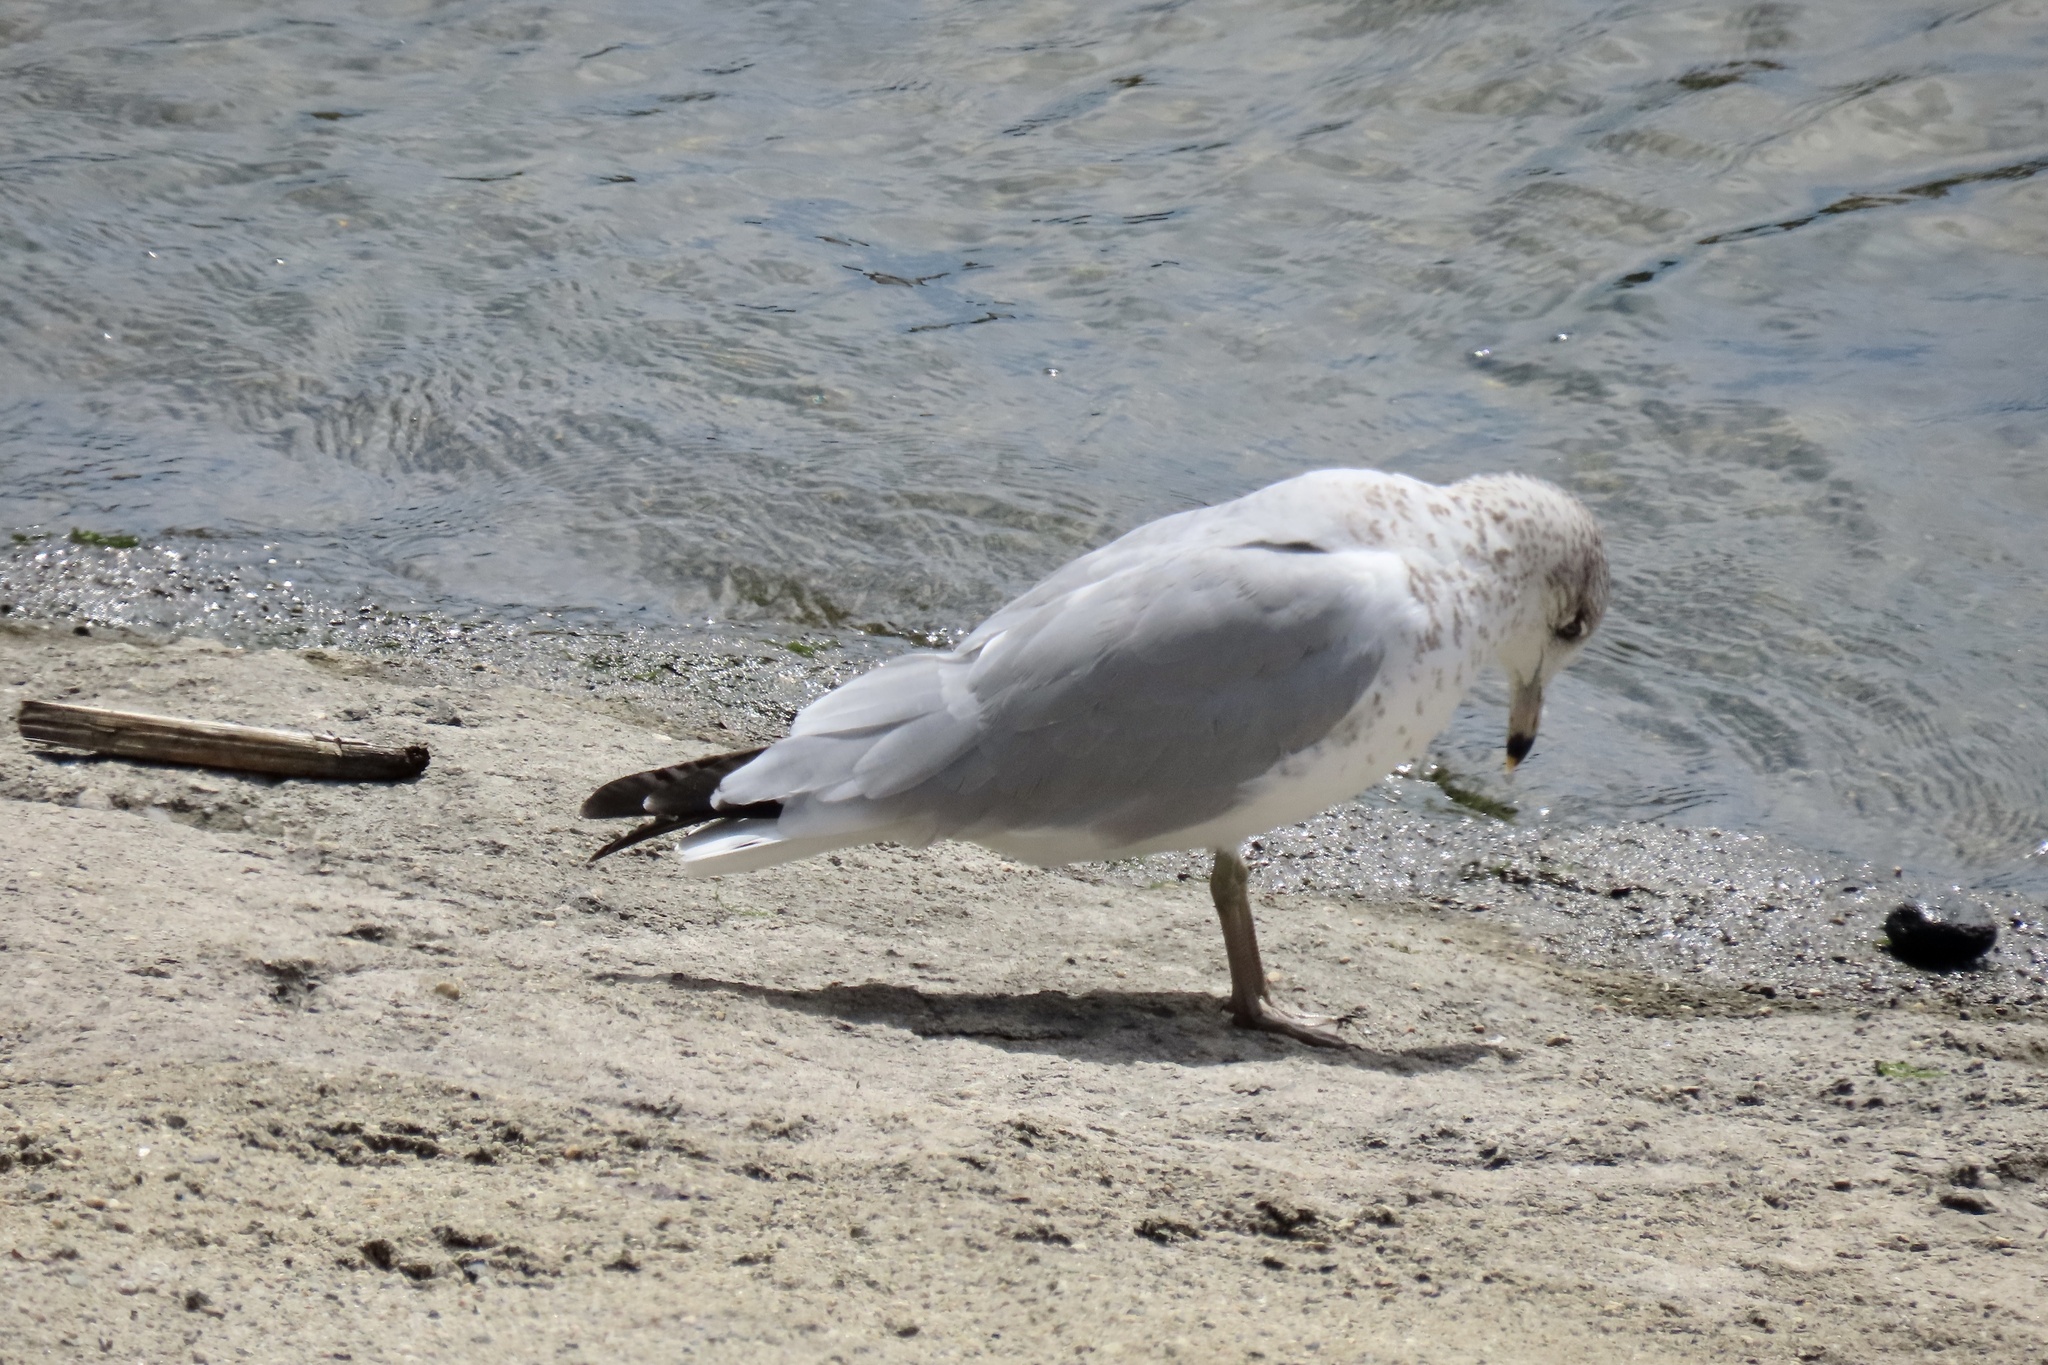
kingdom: Animalia
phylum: Chordata
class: Aves
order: Charadriiformes
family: Laridae
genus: Larus
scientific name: Larus delawarensis
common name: Ring-billed gull
